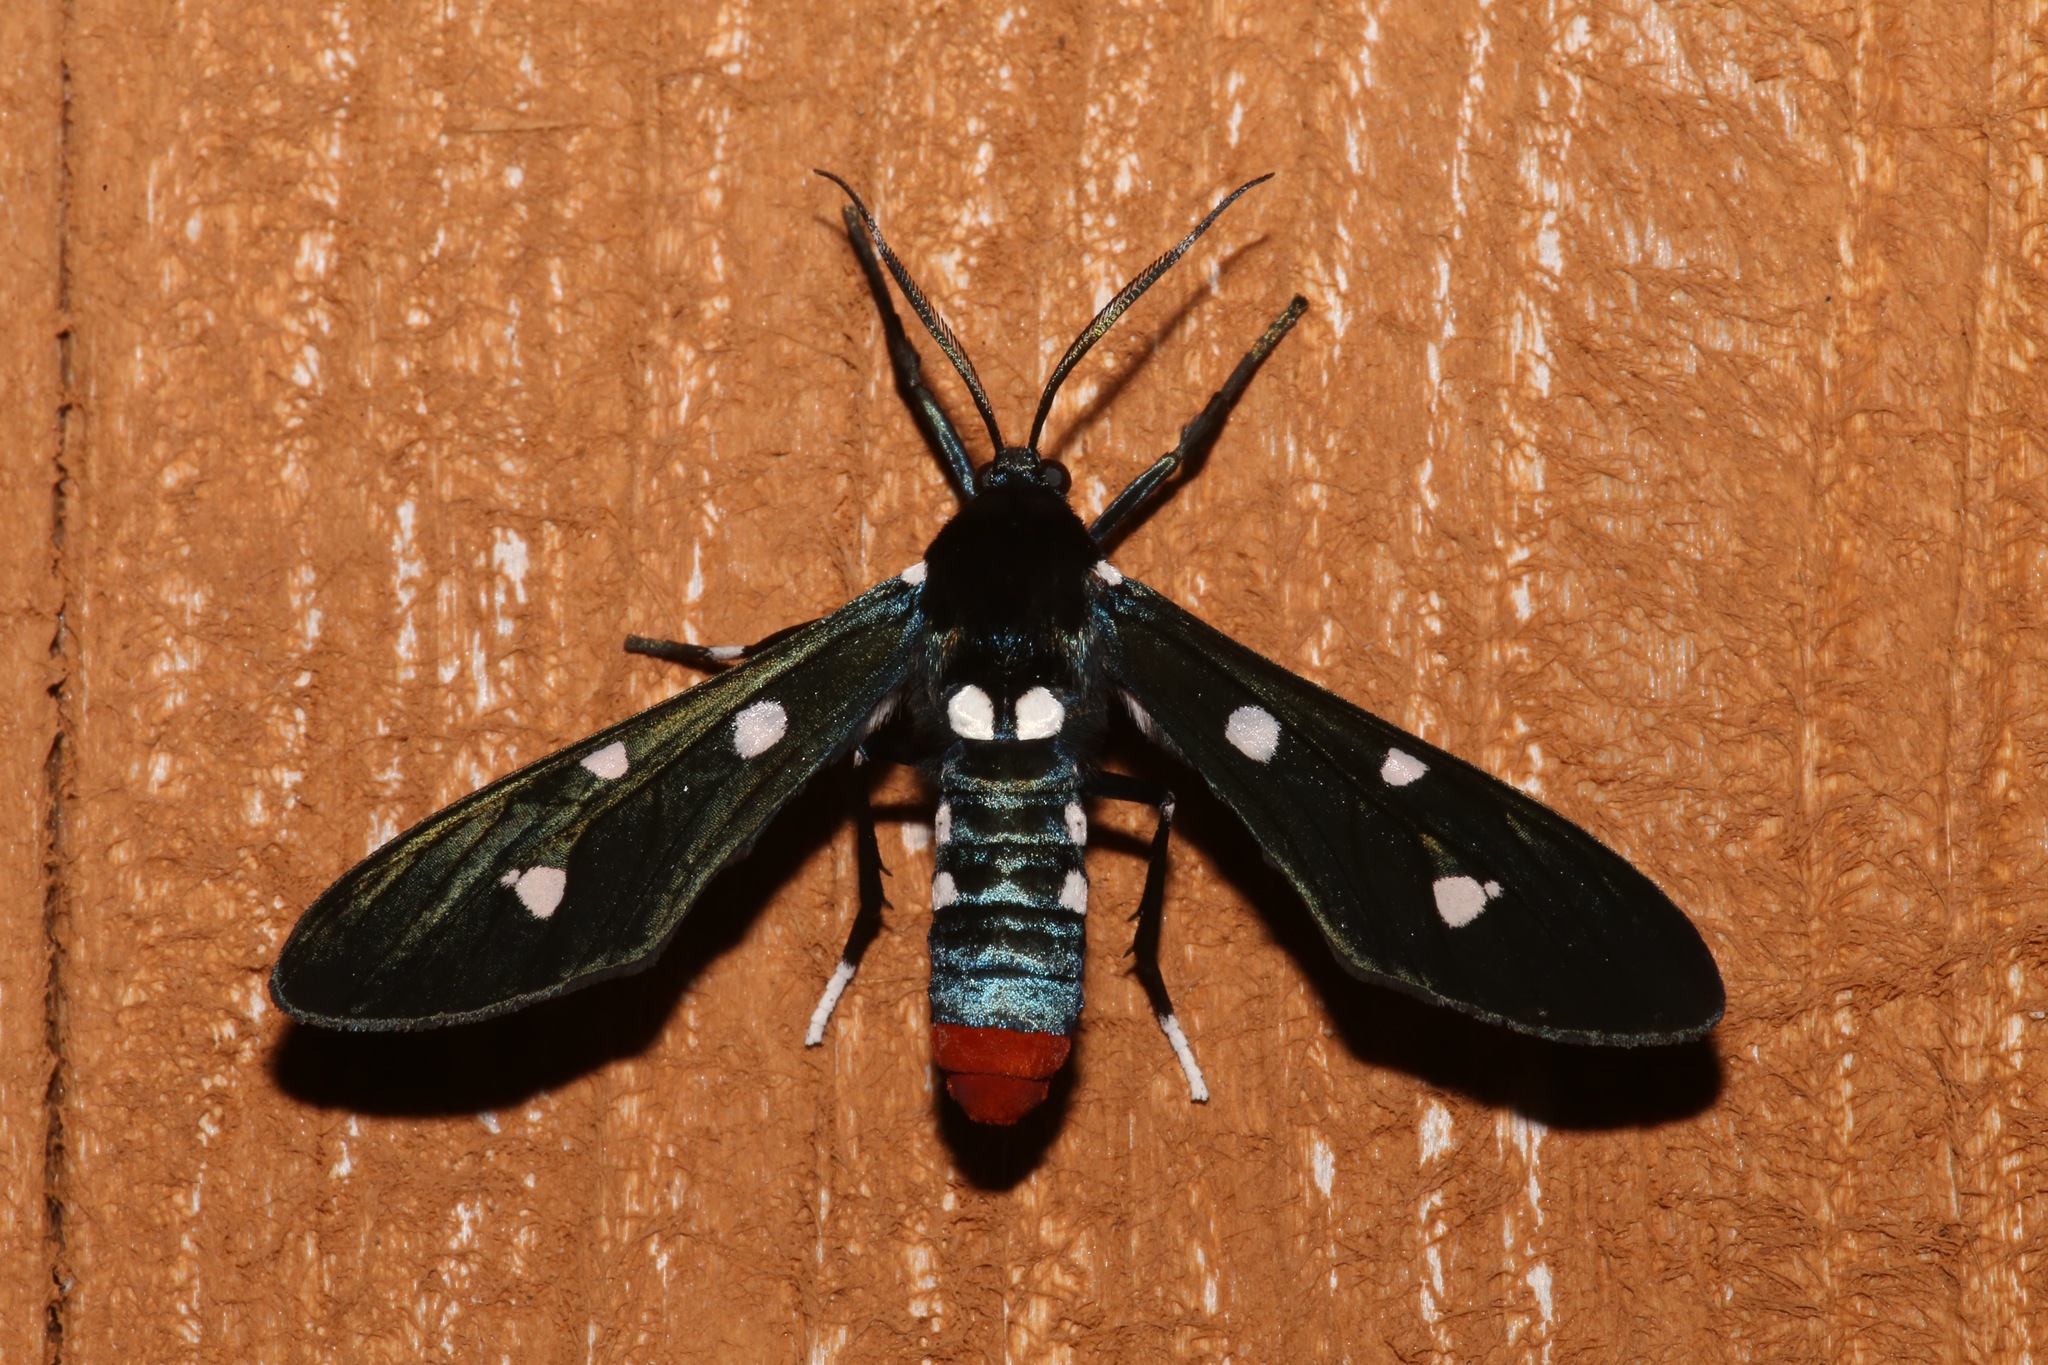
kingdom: Animalia
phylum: Arthropoda
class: Insecta
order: Lepidoptera
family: Erebidae
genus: Syntomeida
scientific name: Syntomeida epilais
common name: Polka-dot wasp moth
